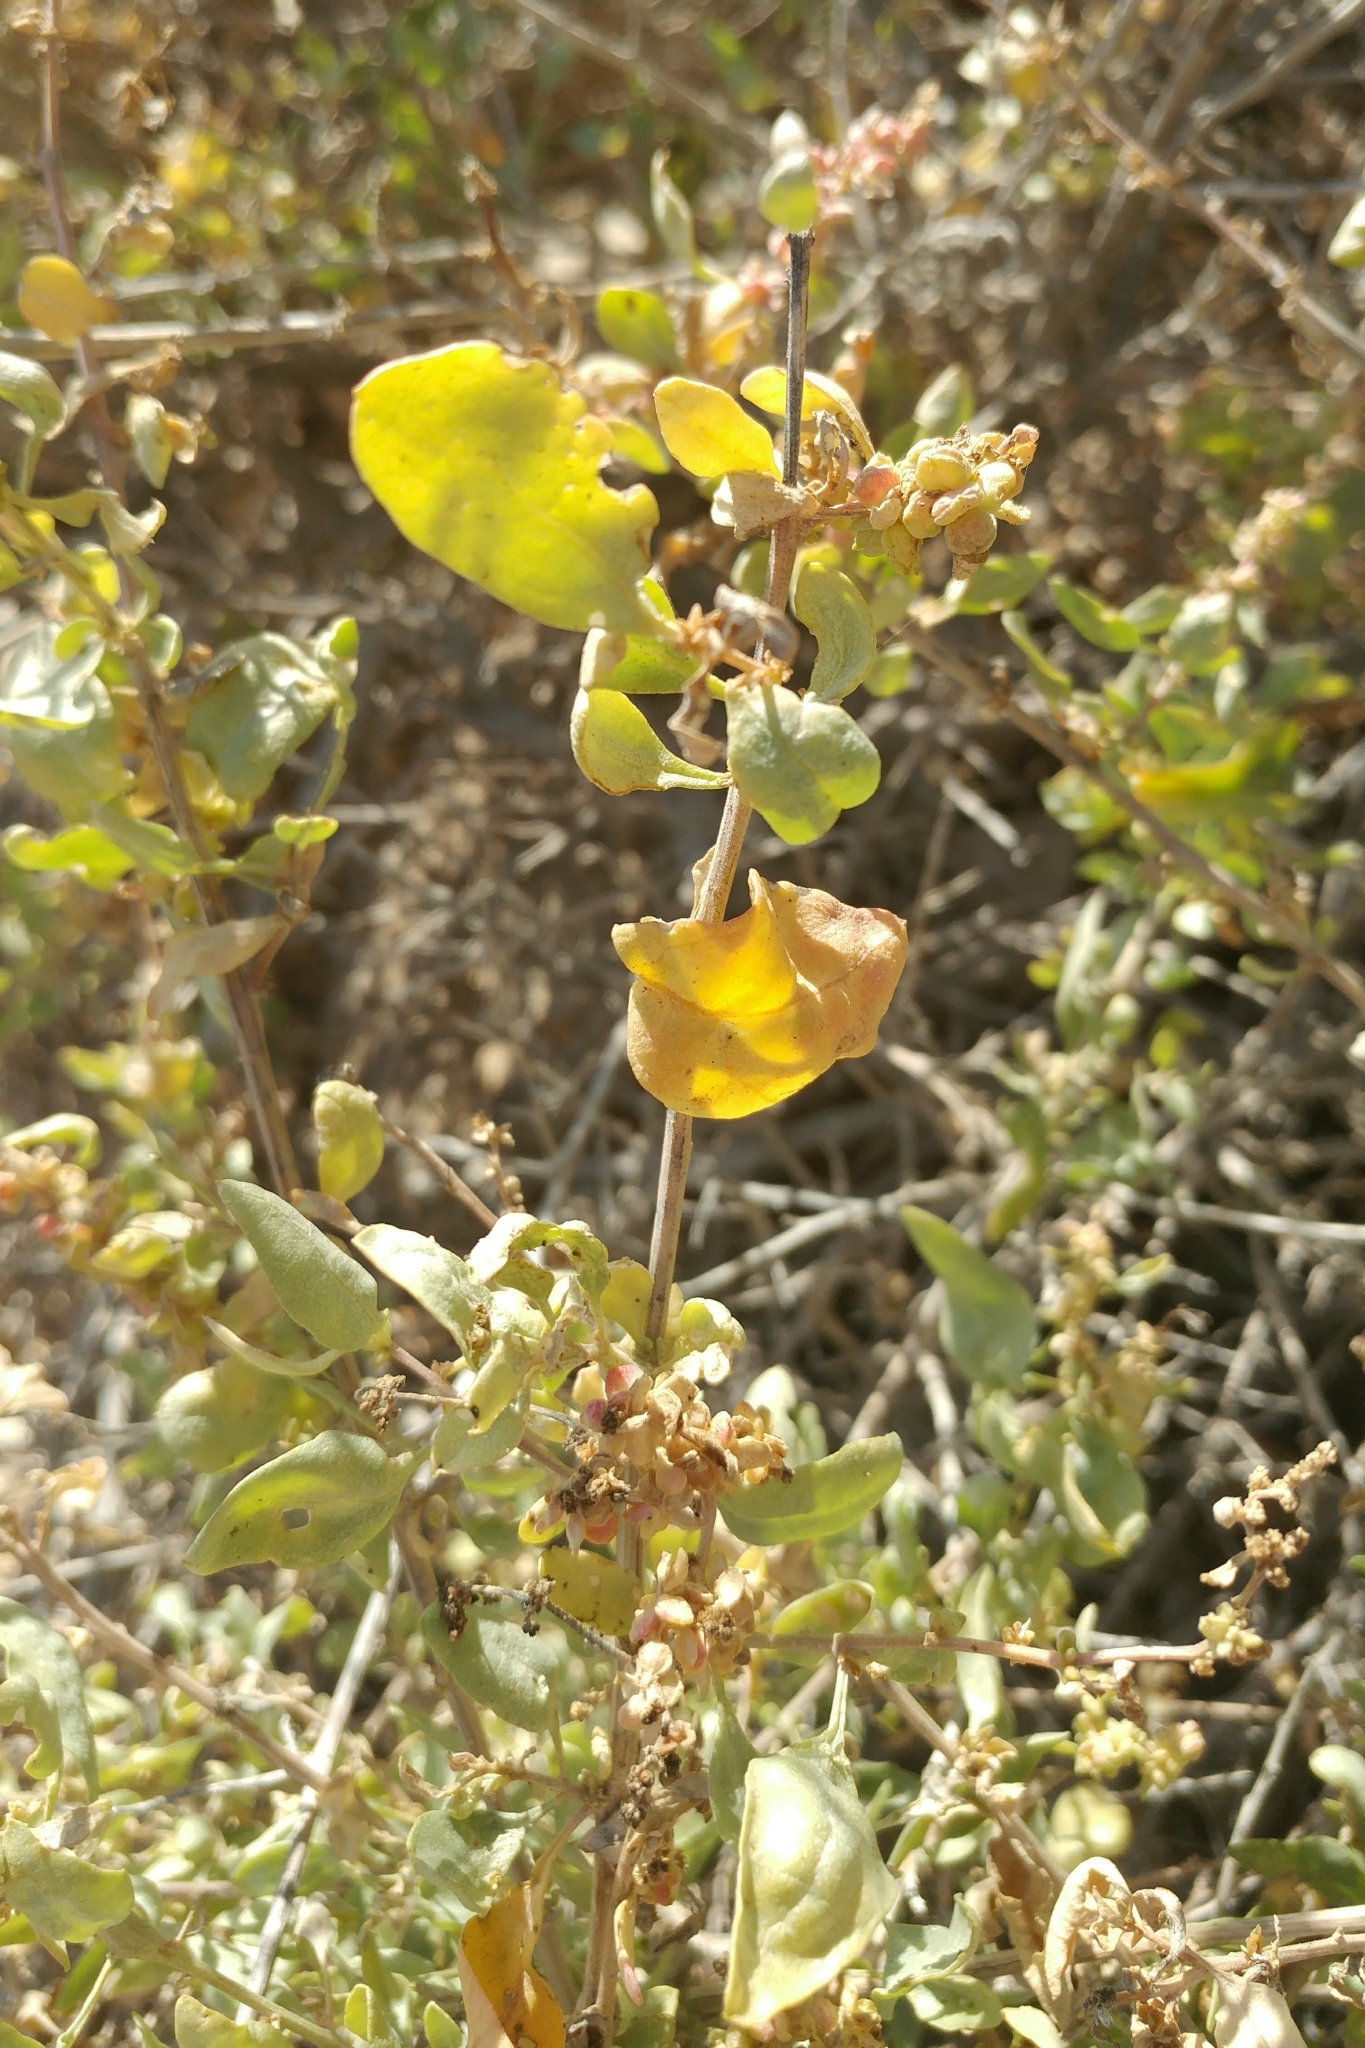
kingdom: Plantae
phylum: Tracheophyta
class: Magnoliopsida
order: Caryophyllales
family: Amaranthaceae
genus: Atriplex
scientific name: Atriplex lentiformis
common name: Big saltbush
